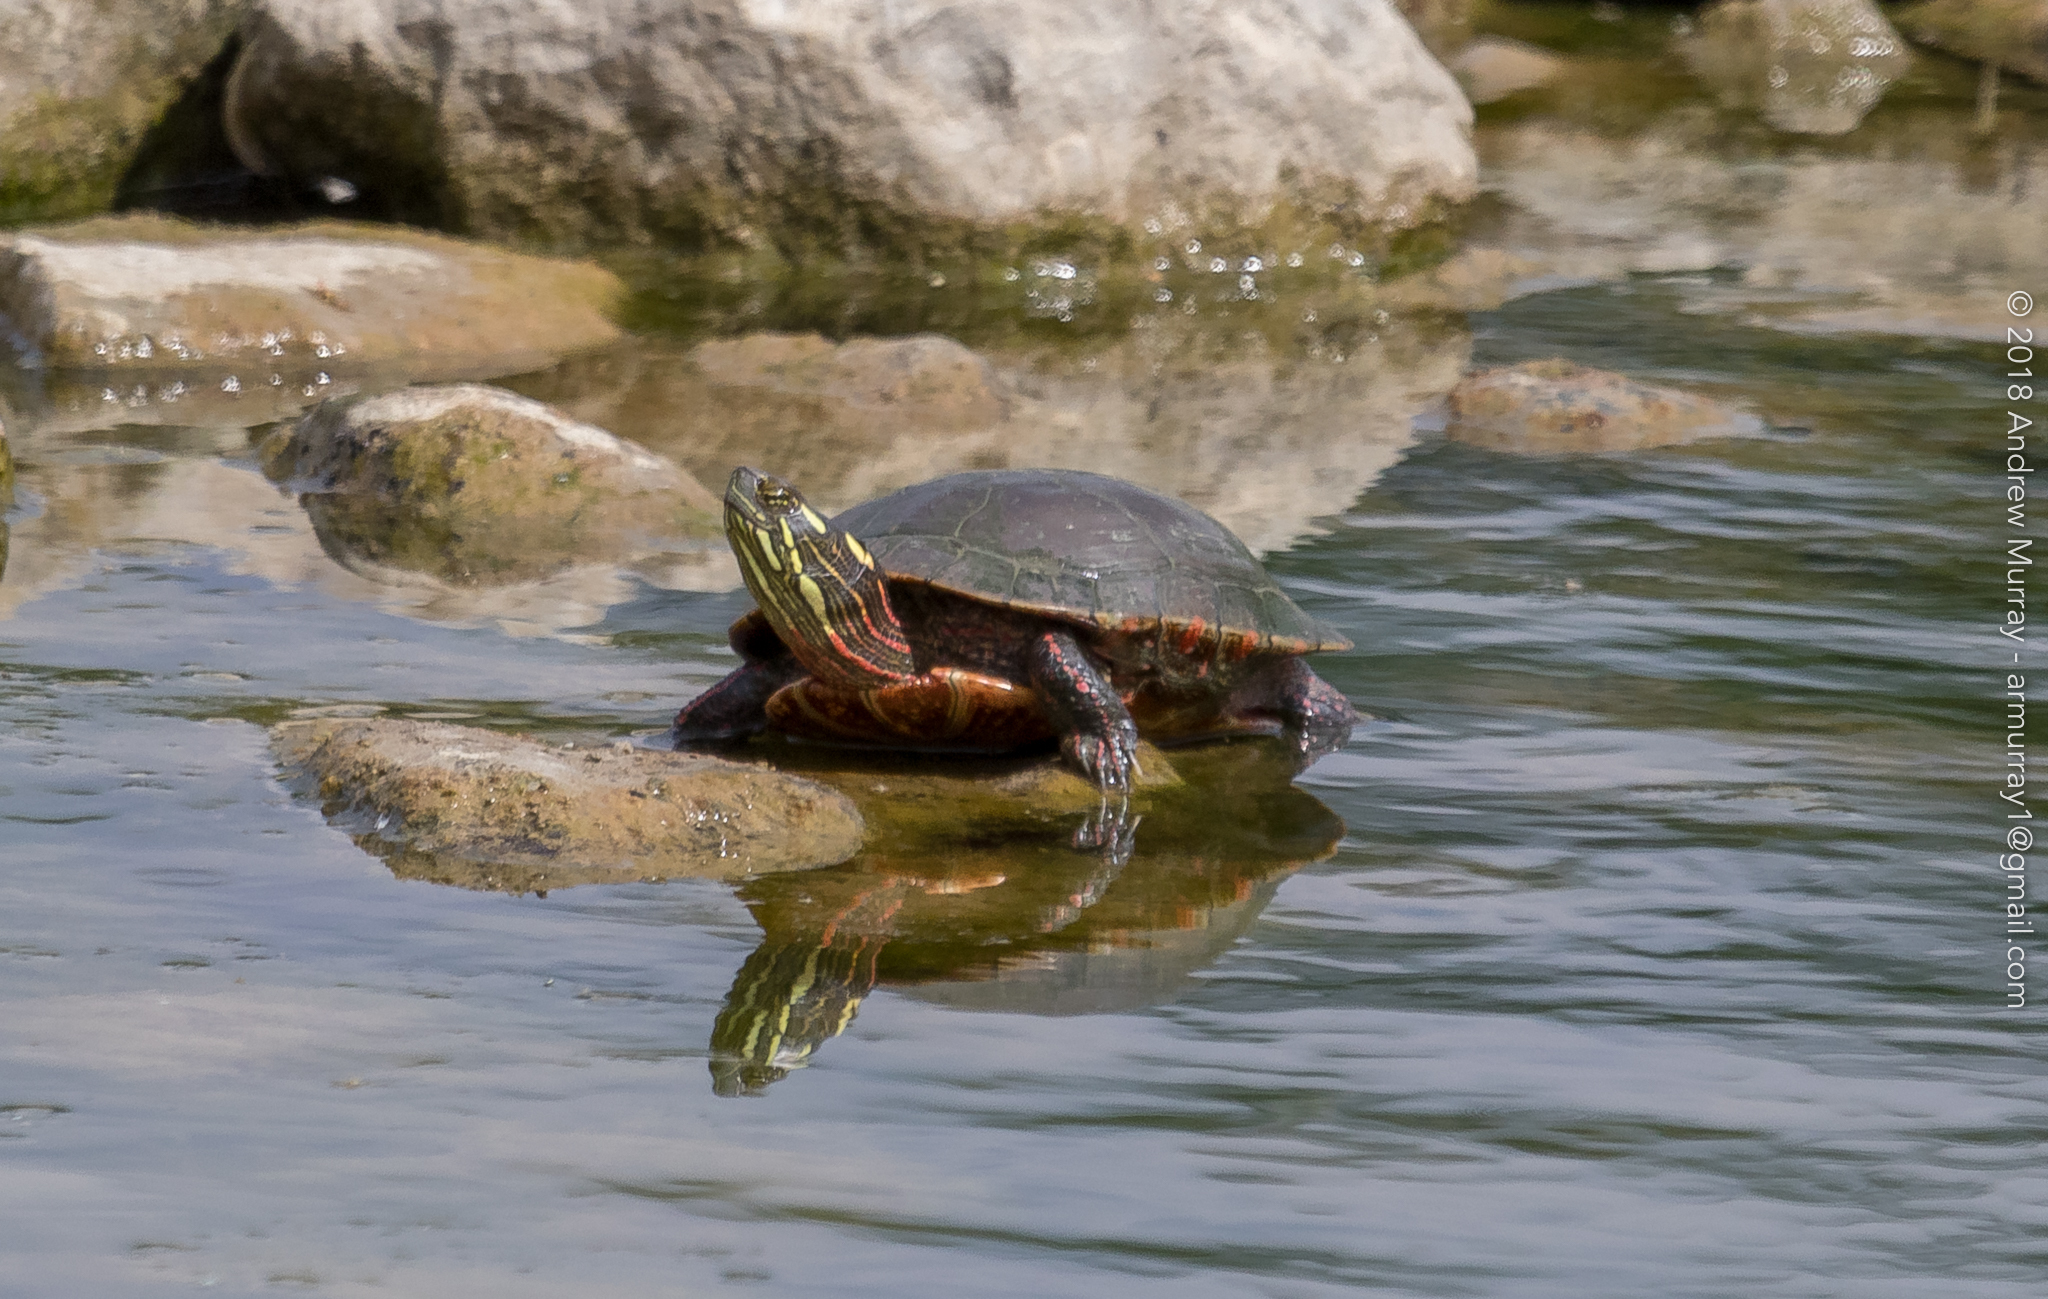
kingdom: Animalia
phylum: Chordata
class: Testudines
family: Emydidae
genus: Chrysemys
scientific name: Chrysemys picta
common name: Painted turtle
